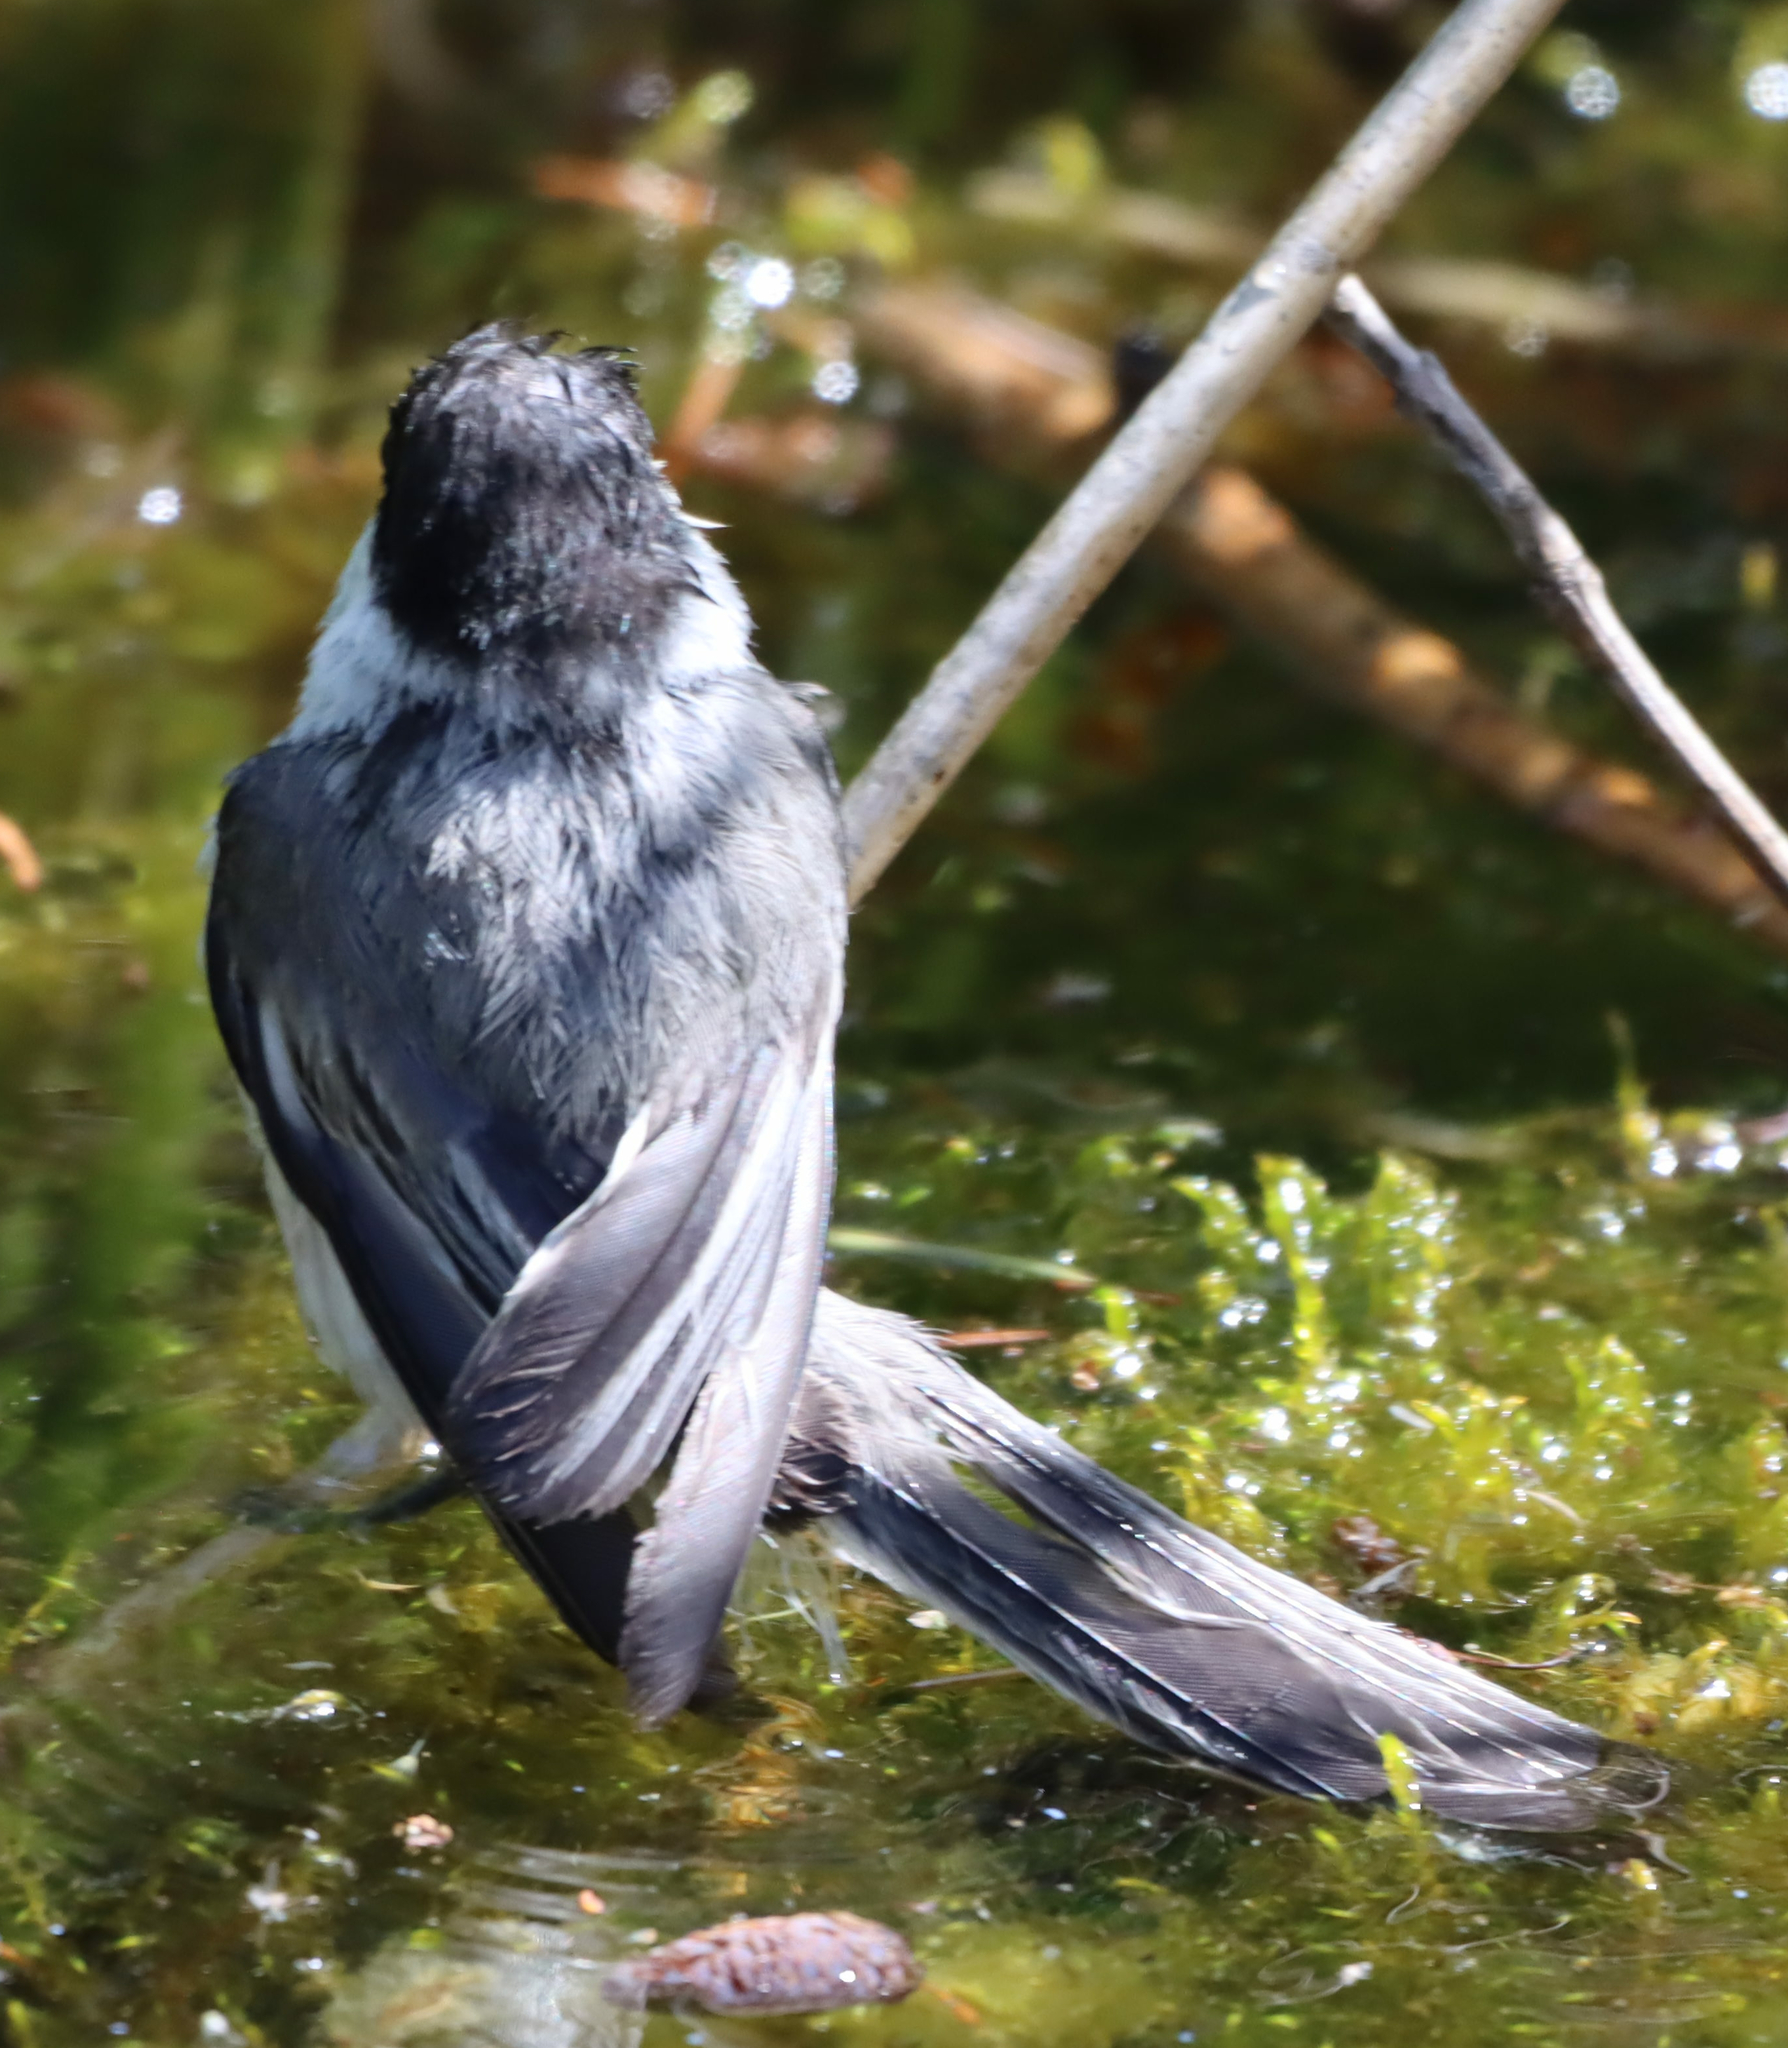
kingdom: Animalia
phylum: Chordata
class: Aves
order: Passeriformes
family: Paridae
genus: Poecile
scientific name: Poecile atricapillus
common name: Black-capped chickadee
